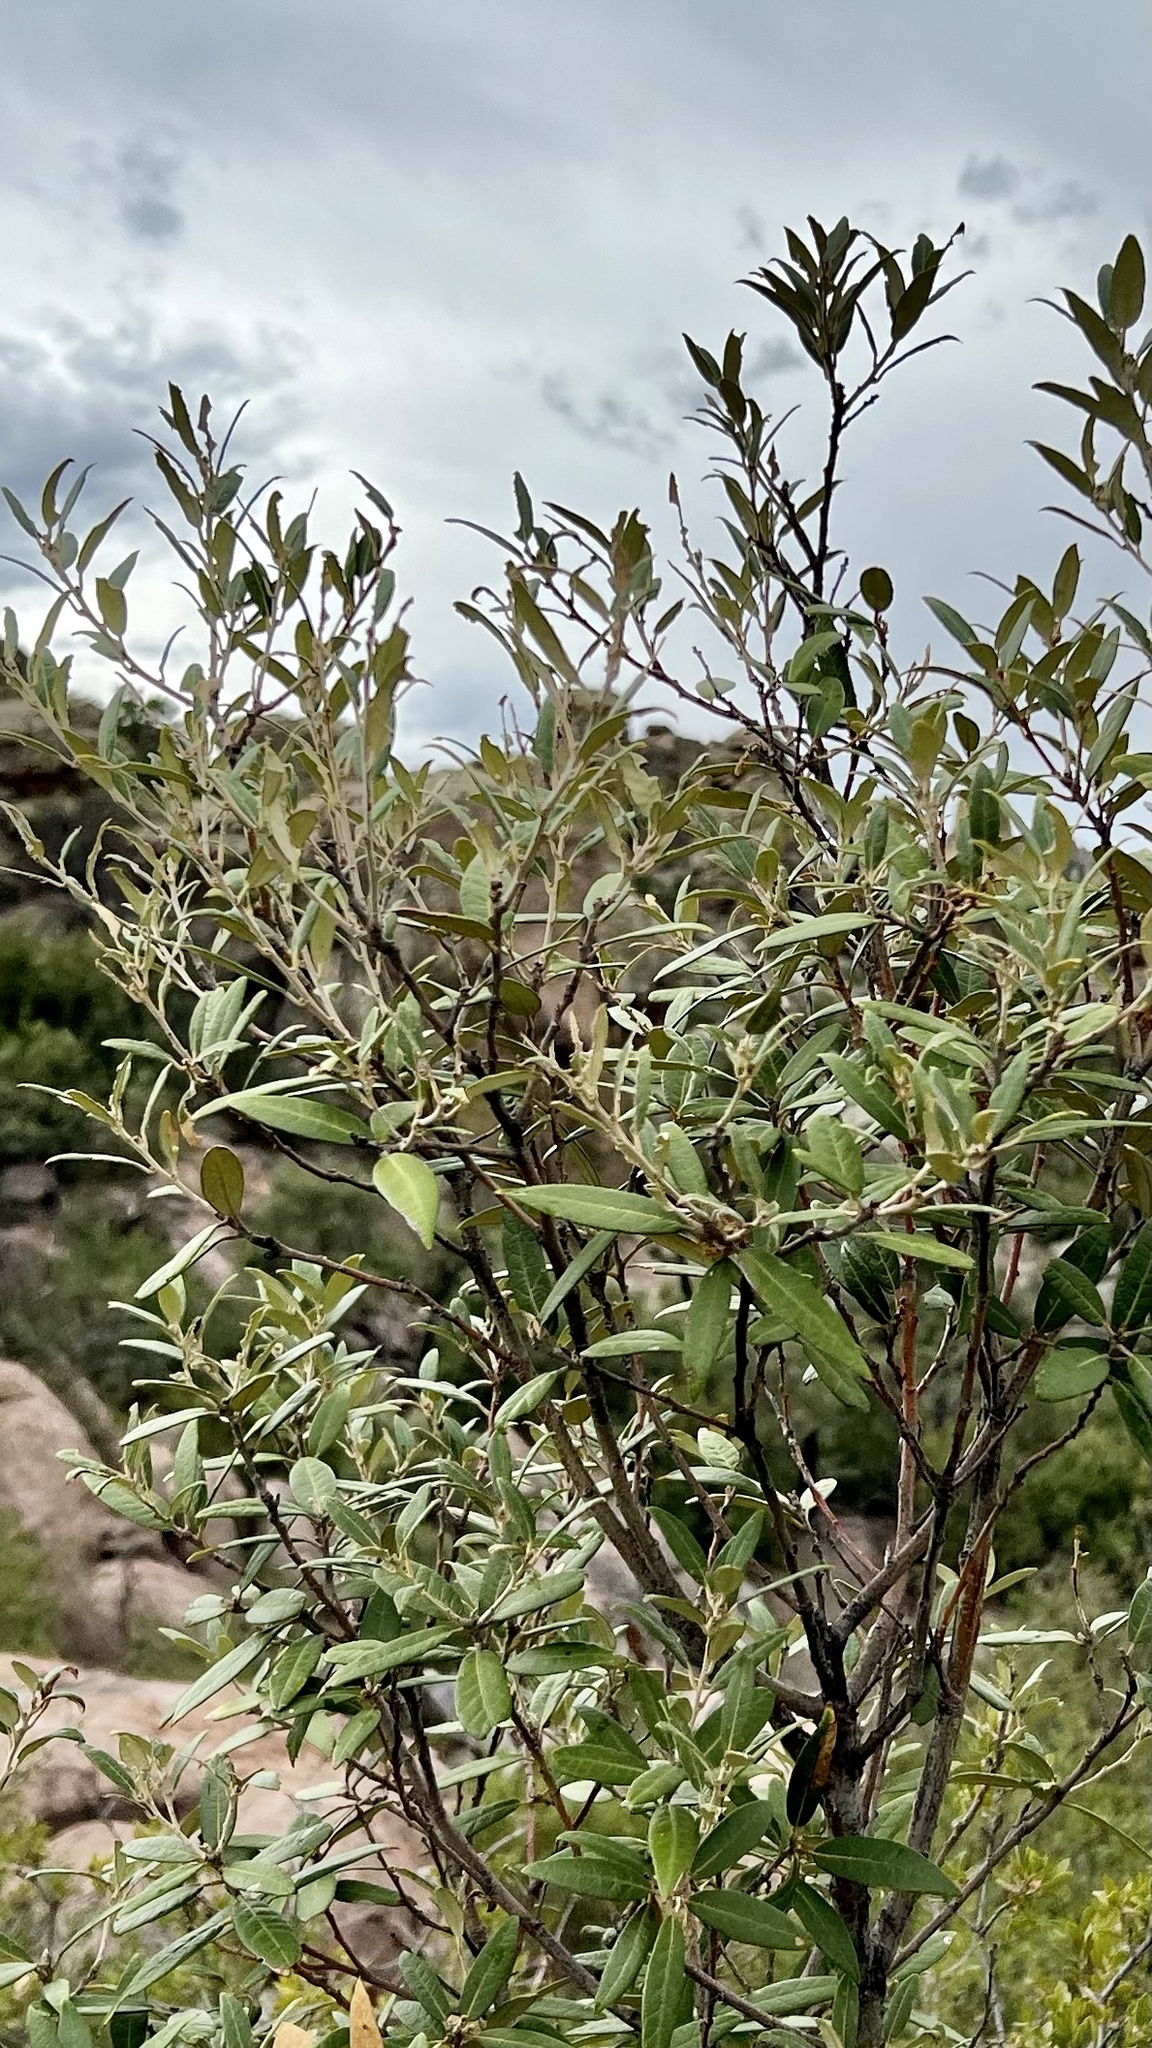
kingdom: Plantae
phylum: Tracheophyta
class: Magnoliopsida
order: Fagales
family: Fagaceae
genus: Quercus
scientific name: Quercus hypoleucoides
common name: Silverleaf oak
